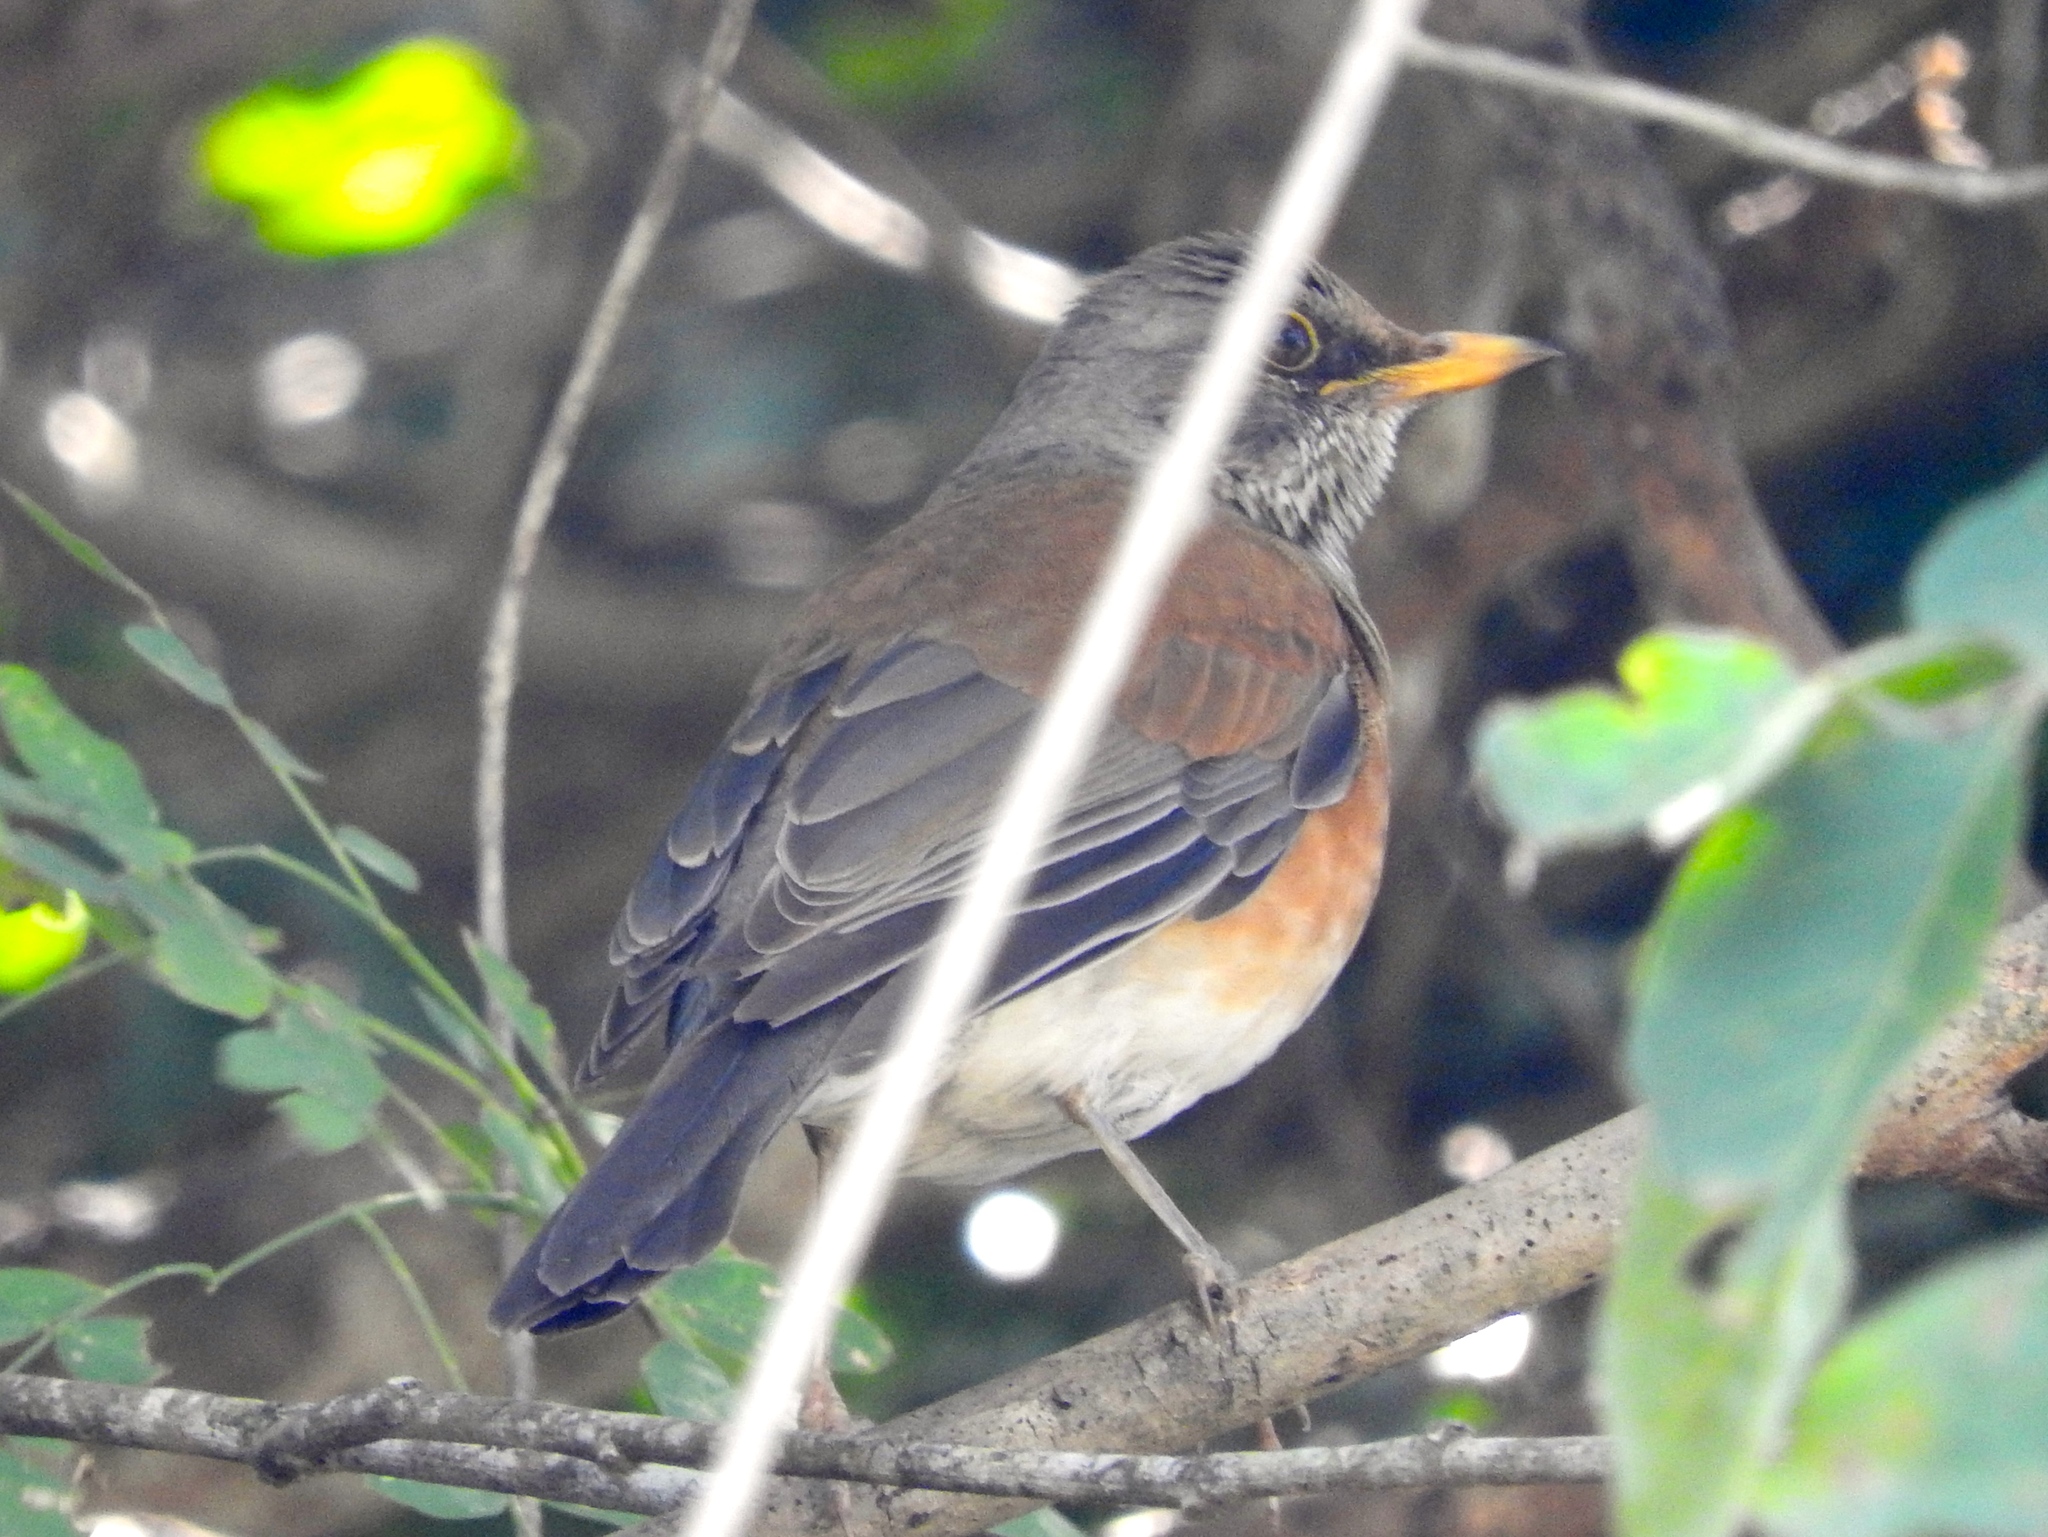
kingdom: Animalia
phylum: Chordata
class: Aves
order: Passeriformes
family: Turdidae
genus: Turdus
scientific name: Turdus rufopalliatus
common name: Rufous-backed robin
